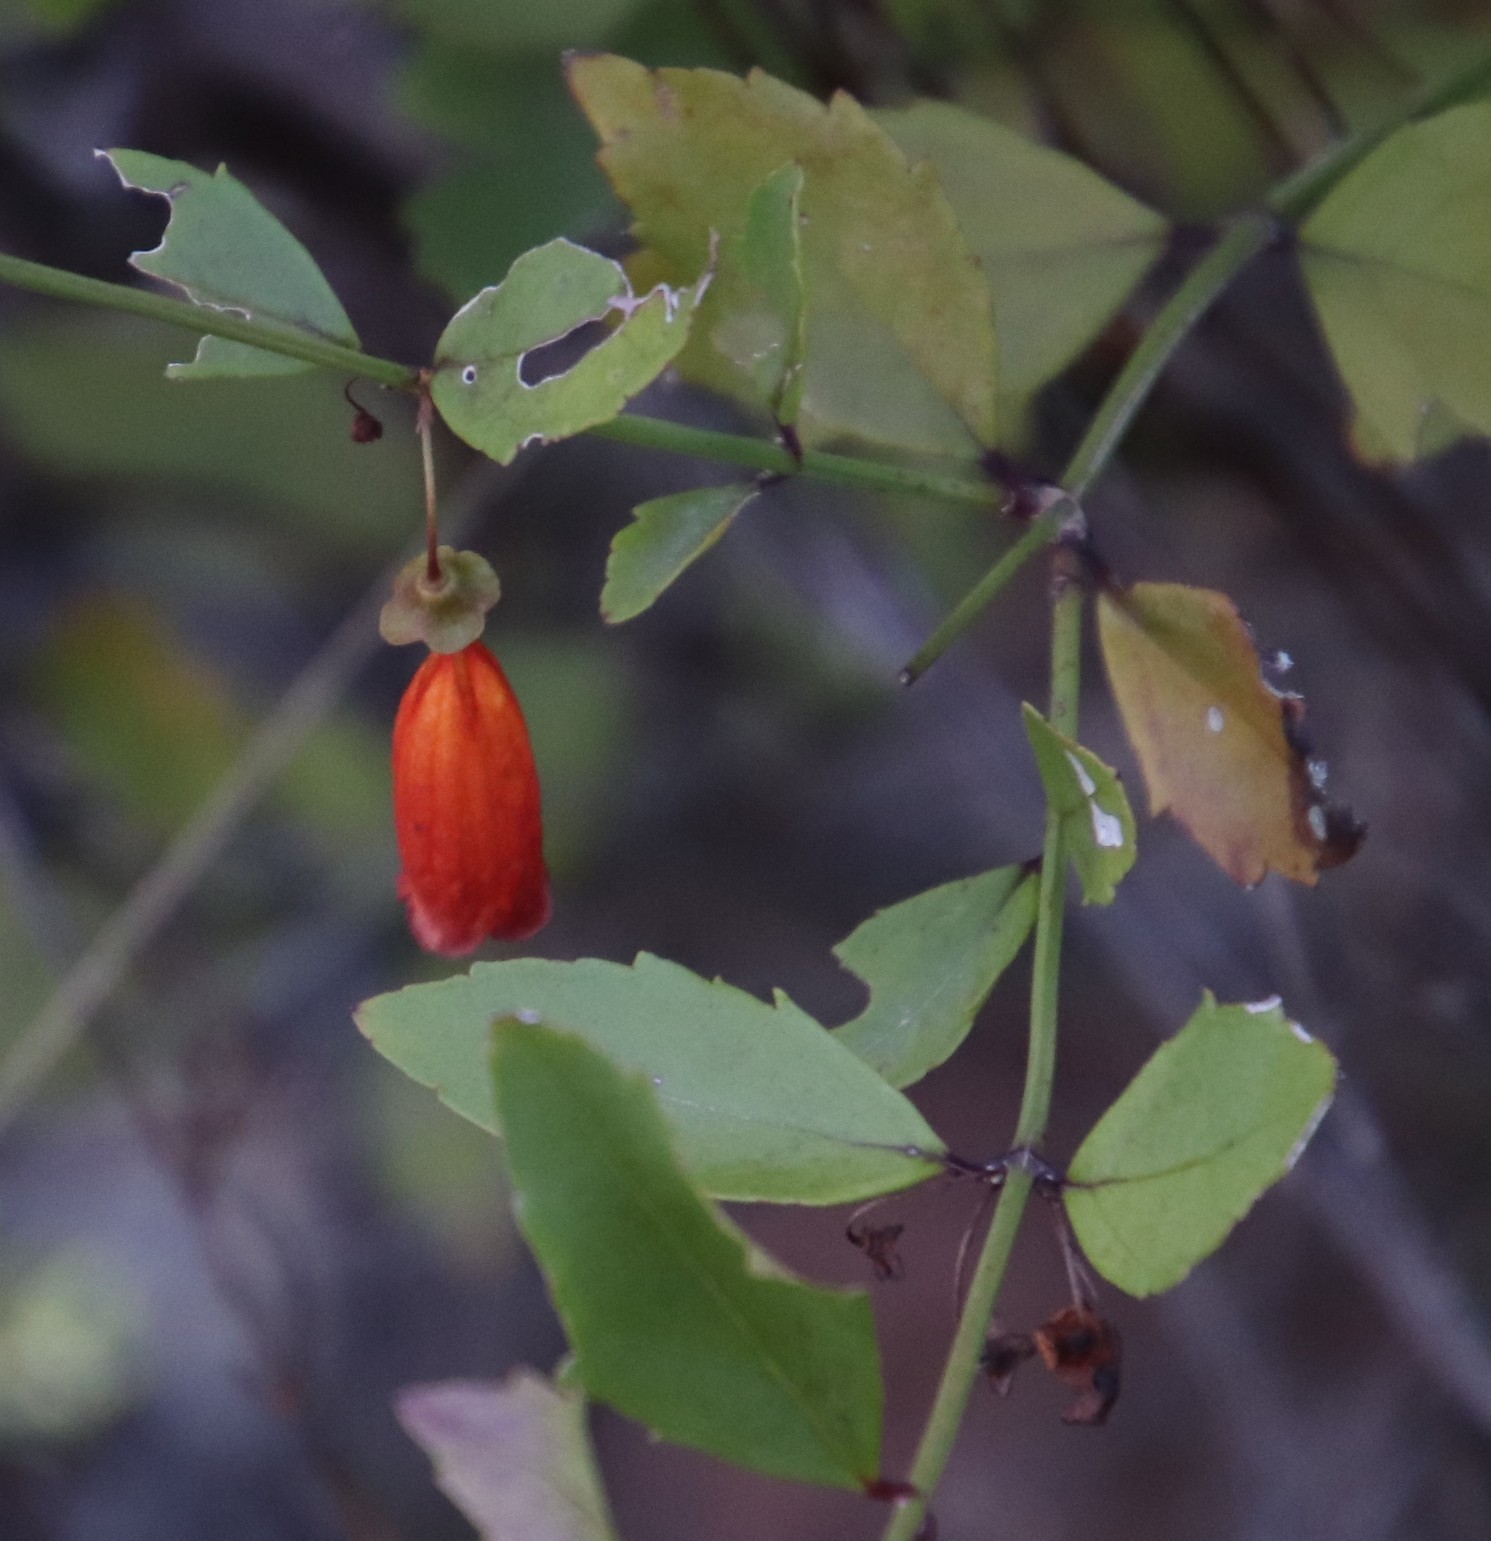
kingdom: Plantae
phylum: Tracheophyta
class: Magnoliopsida
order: Lamiales
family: Stilbaceae
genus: Halleria
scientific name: Halleria elliptica
